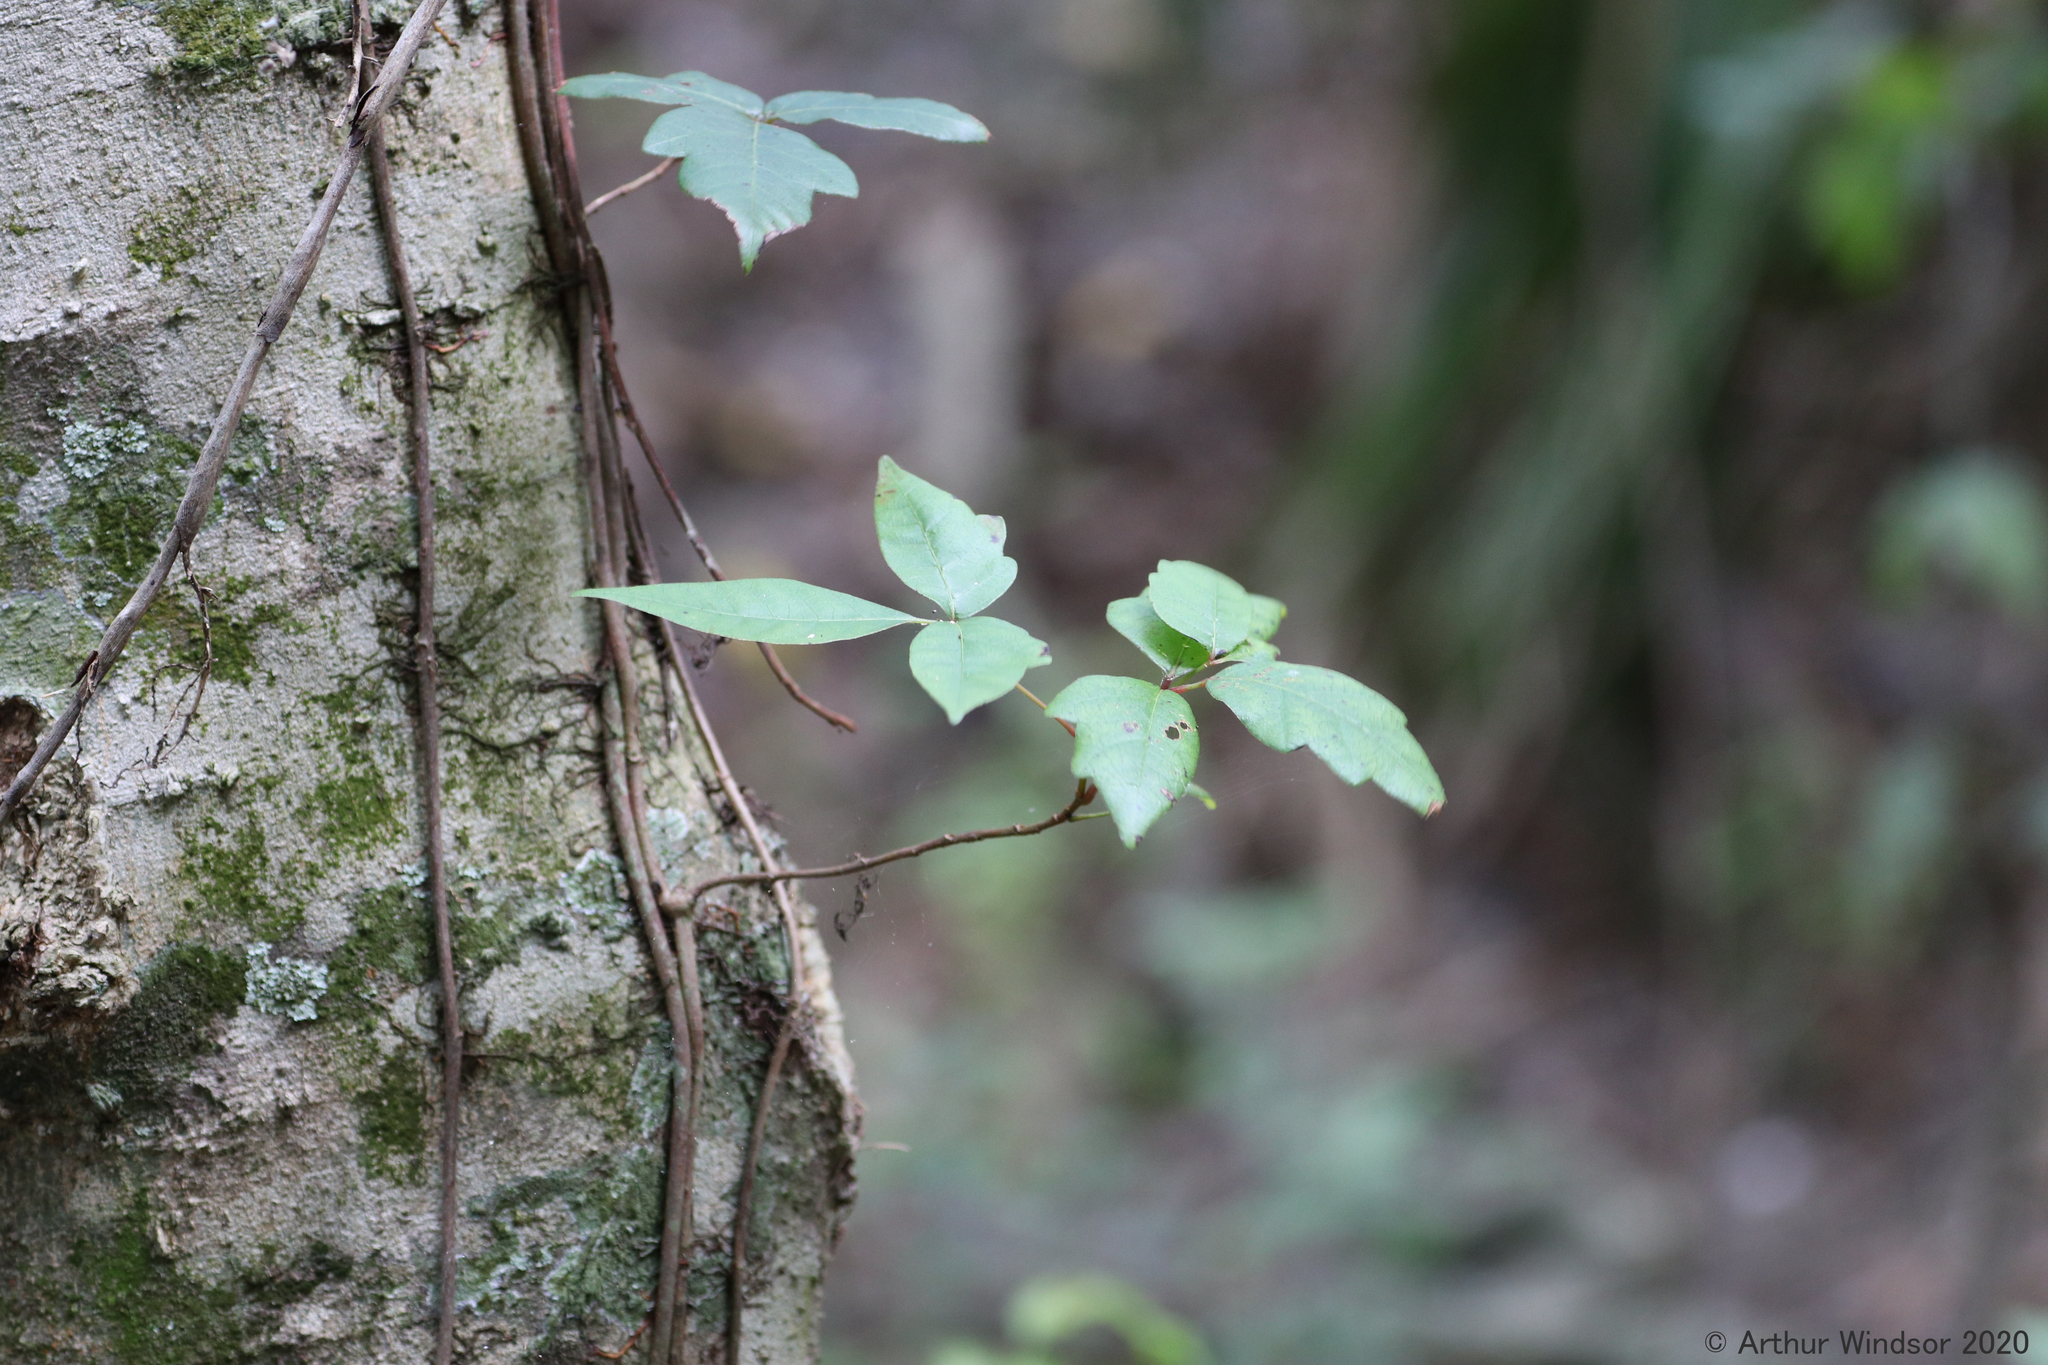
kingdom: Plantae
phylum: Tracheophyta
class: Magnoliopsida
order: Sapindales
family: Anacardiaceae
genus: Toxicodendron
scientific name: Toxicodendron radicans
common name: Poison ivy
